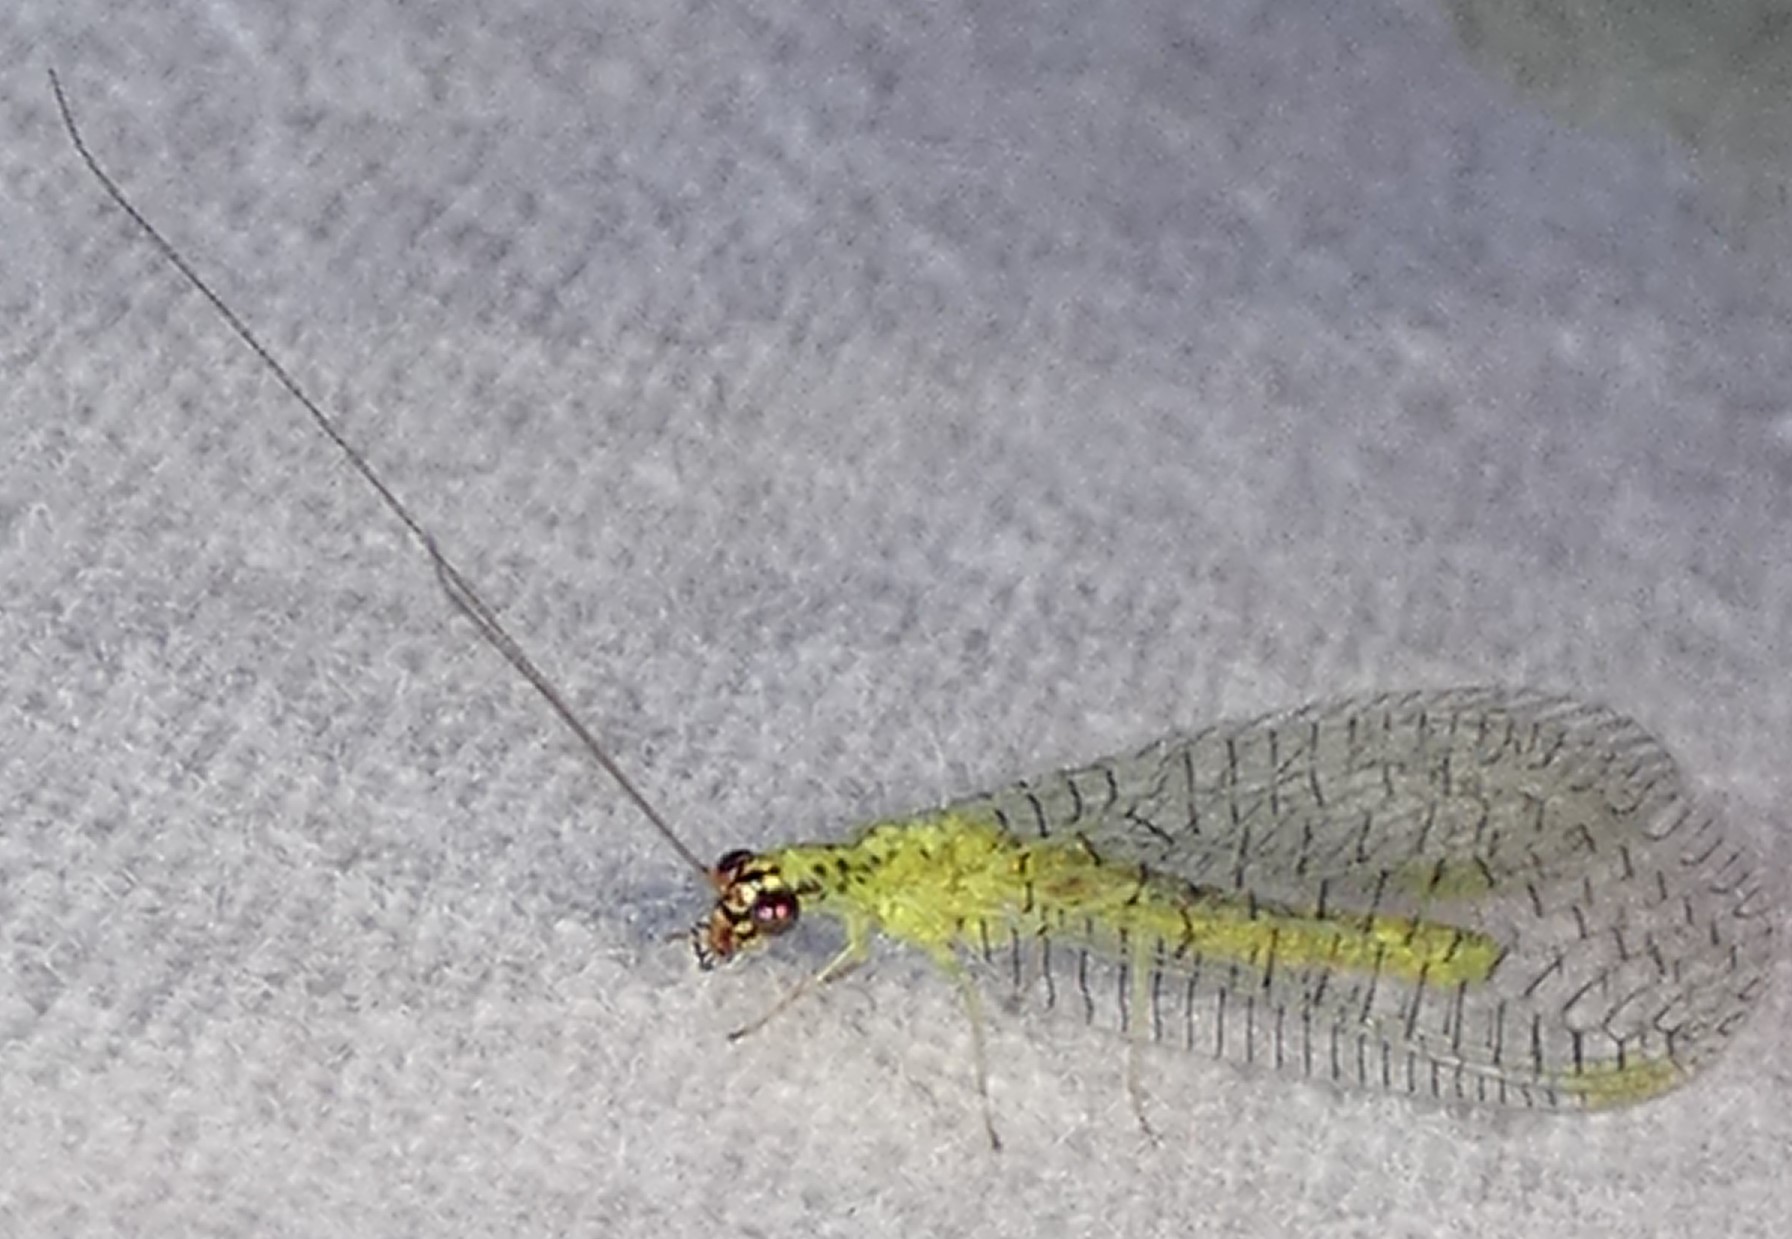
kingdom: Animalia
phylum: Arthropoda
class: Insecta
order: Neuroptera
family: Chrysopidae
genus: Chrysopa
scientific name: Chrysopa oculata
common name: Golden-eyed lacewing
